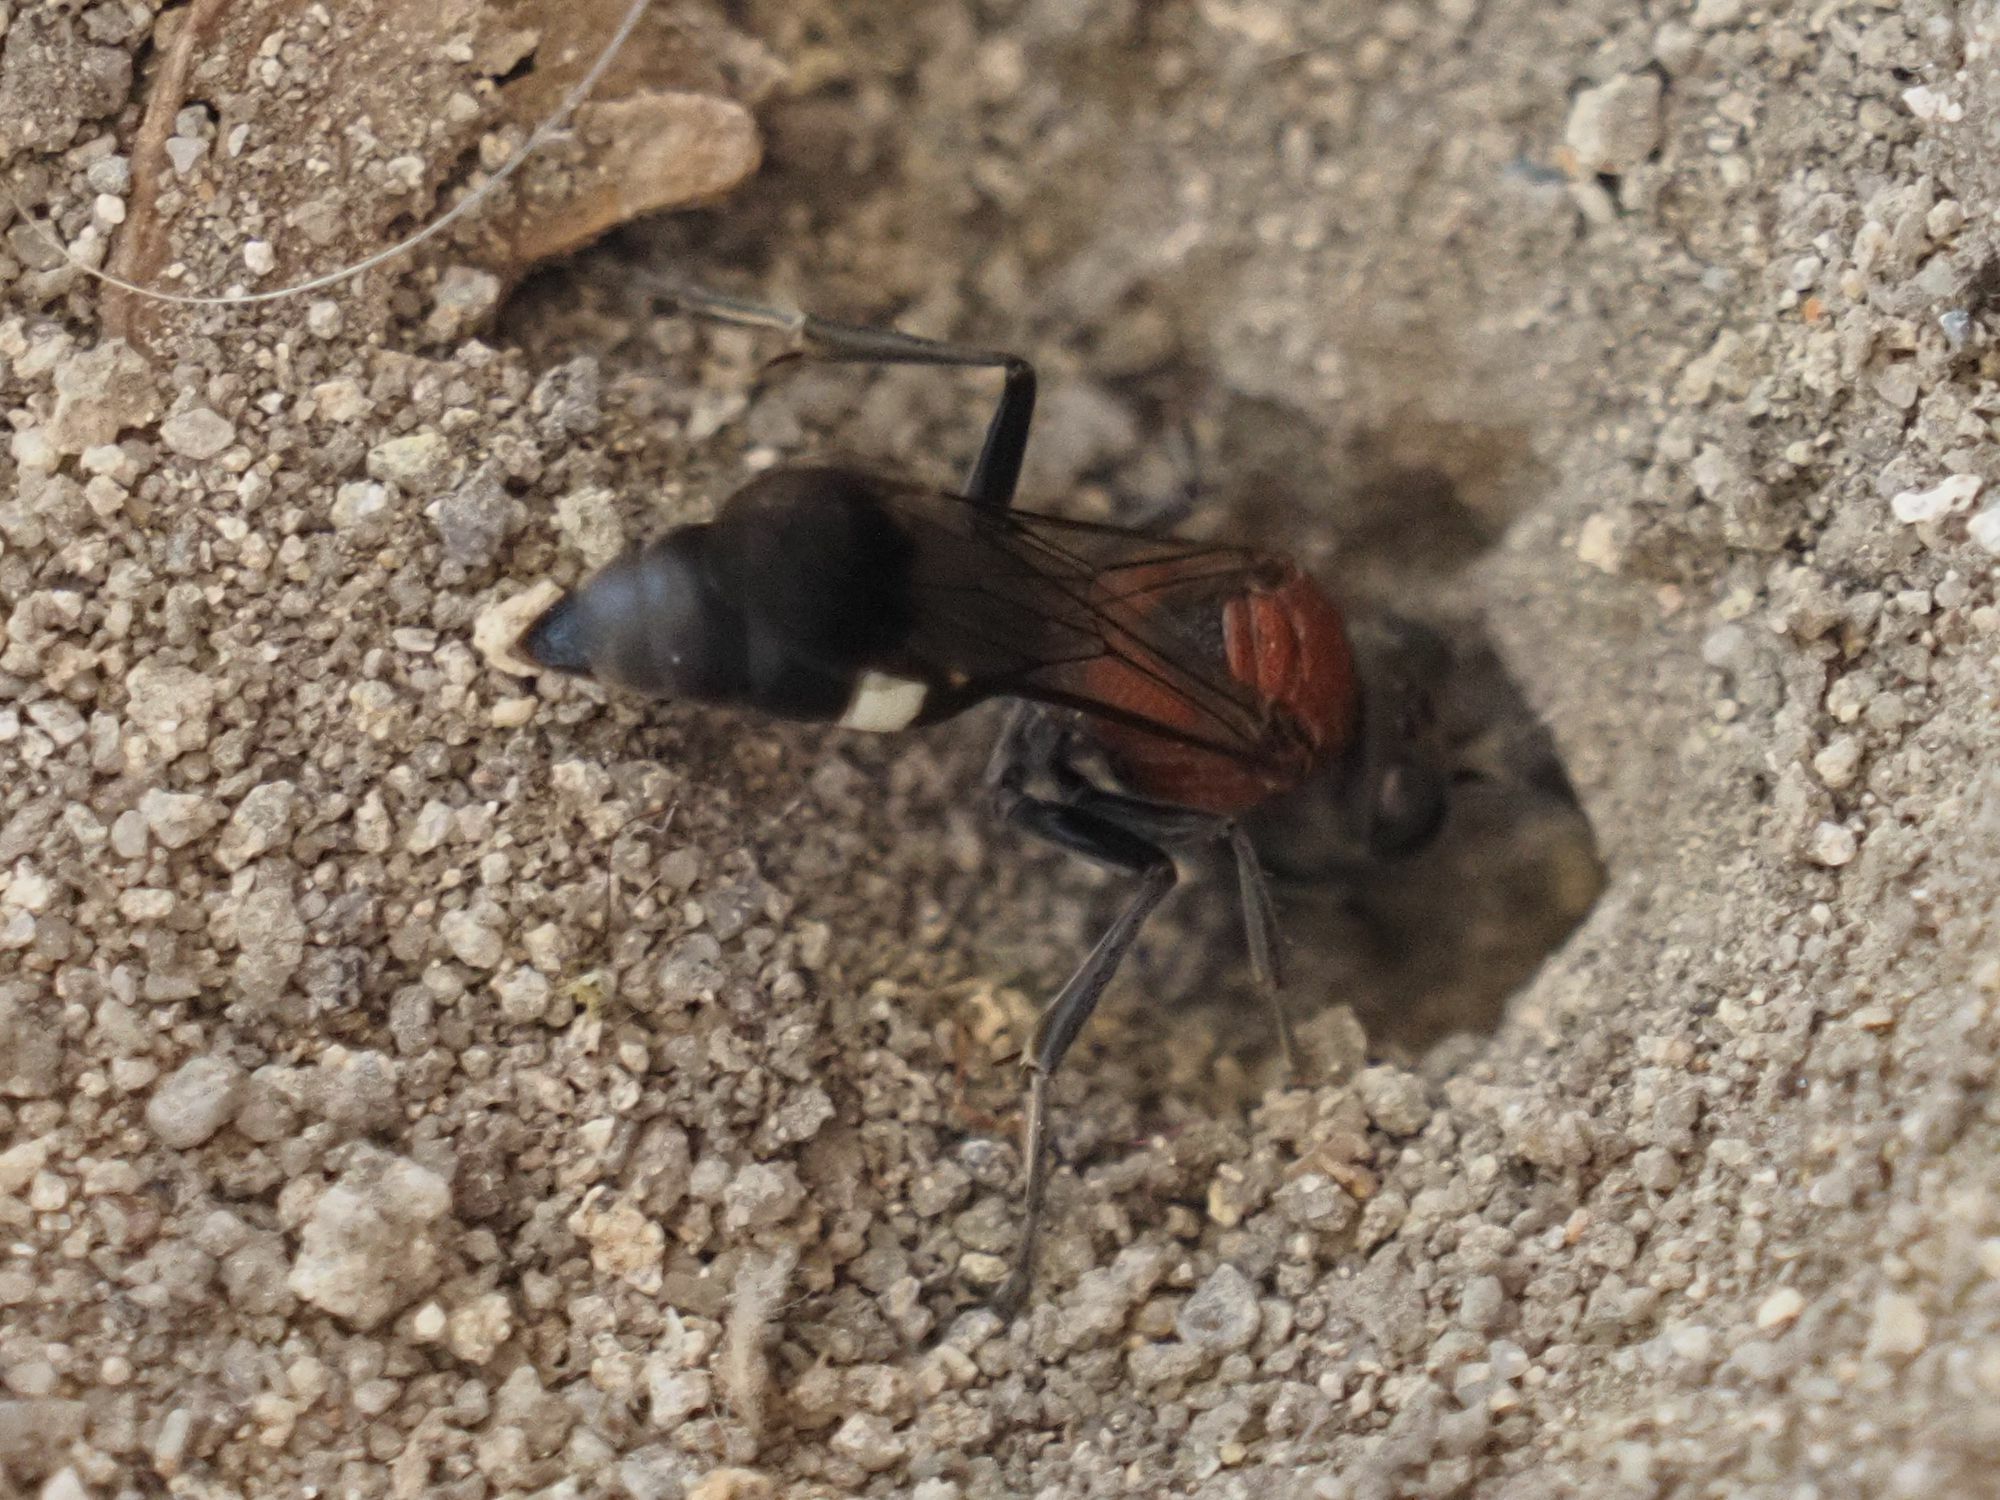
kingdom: Animalia
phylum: Arthropoda
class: Insecta
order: Hymenoptera
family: Crabronidae
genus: Oryttus
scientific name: Oryttus concinnus
